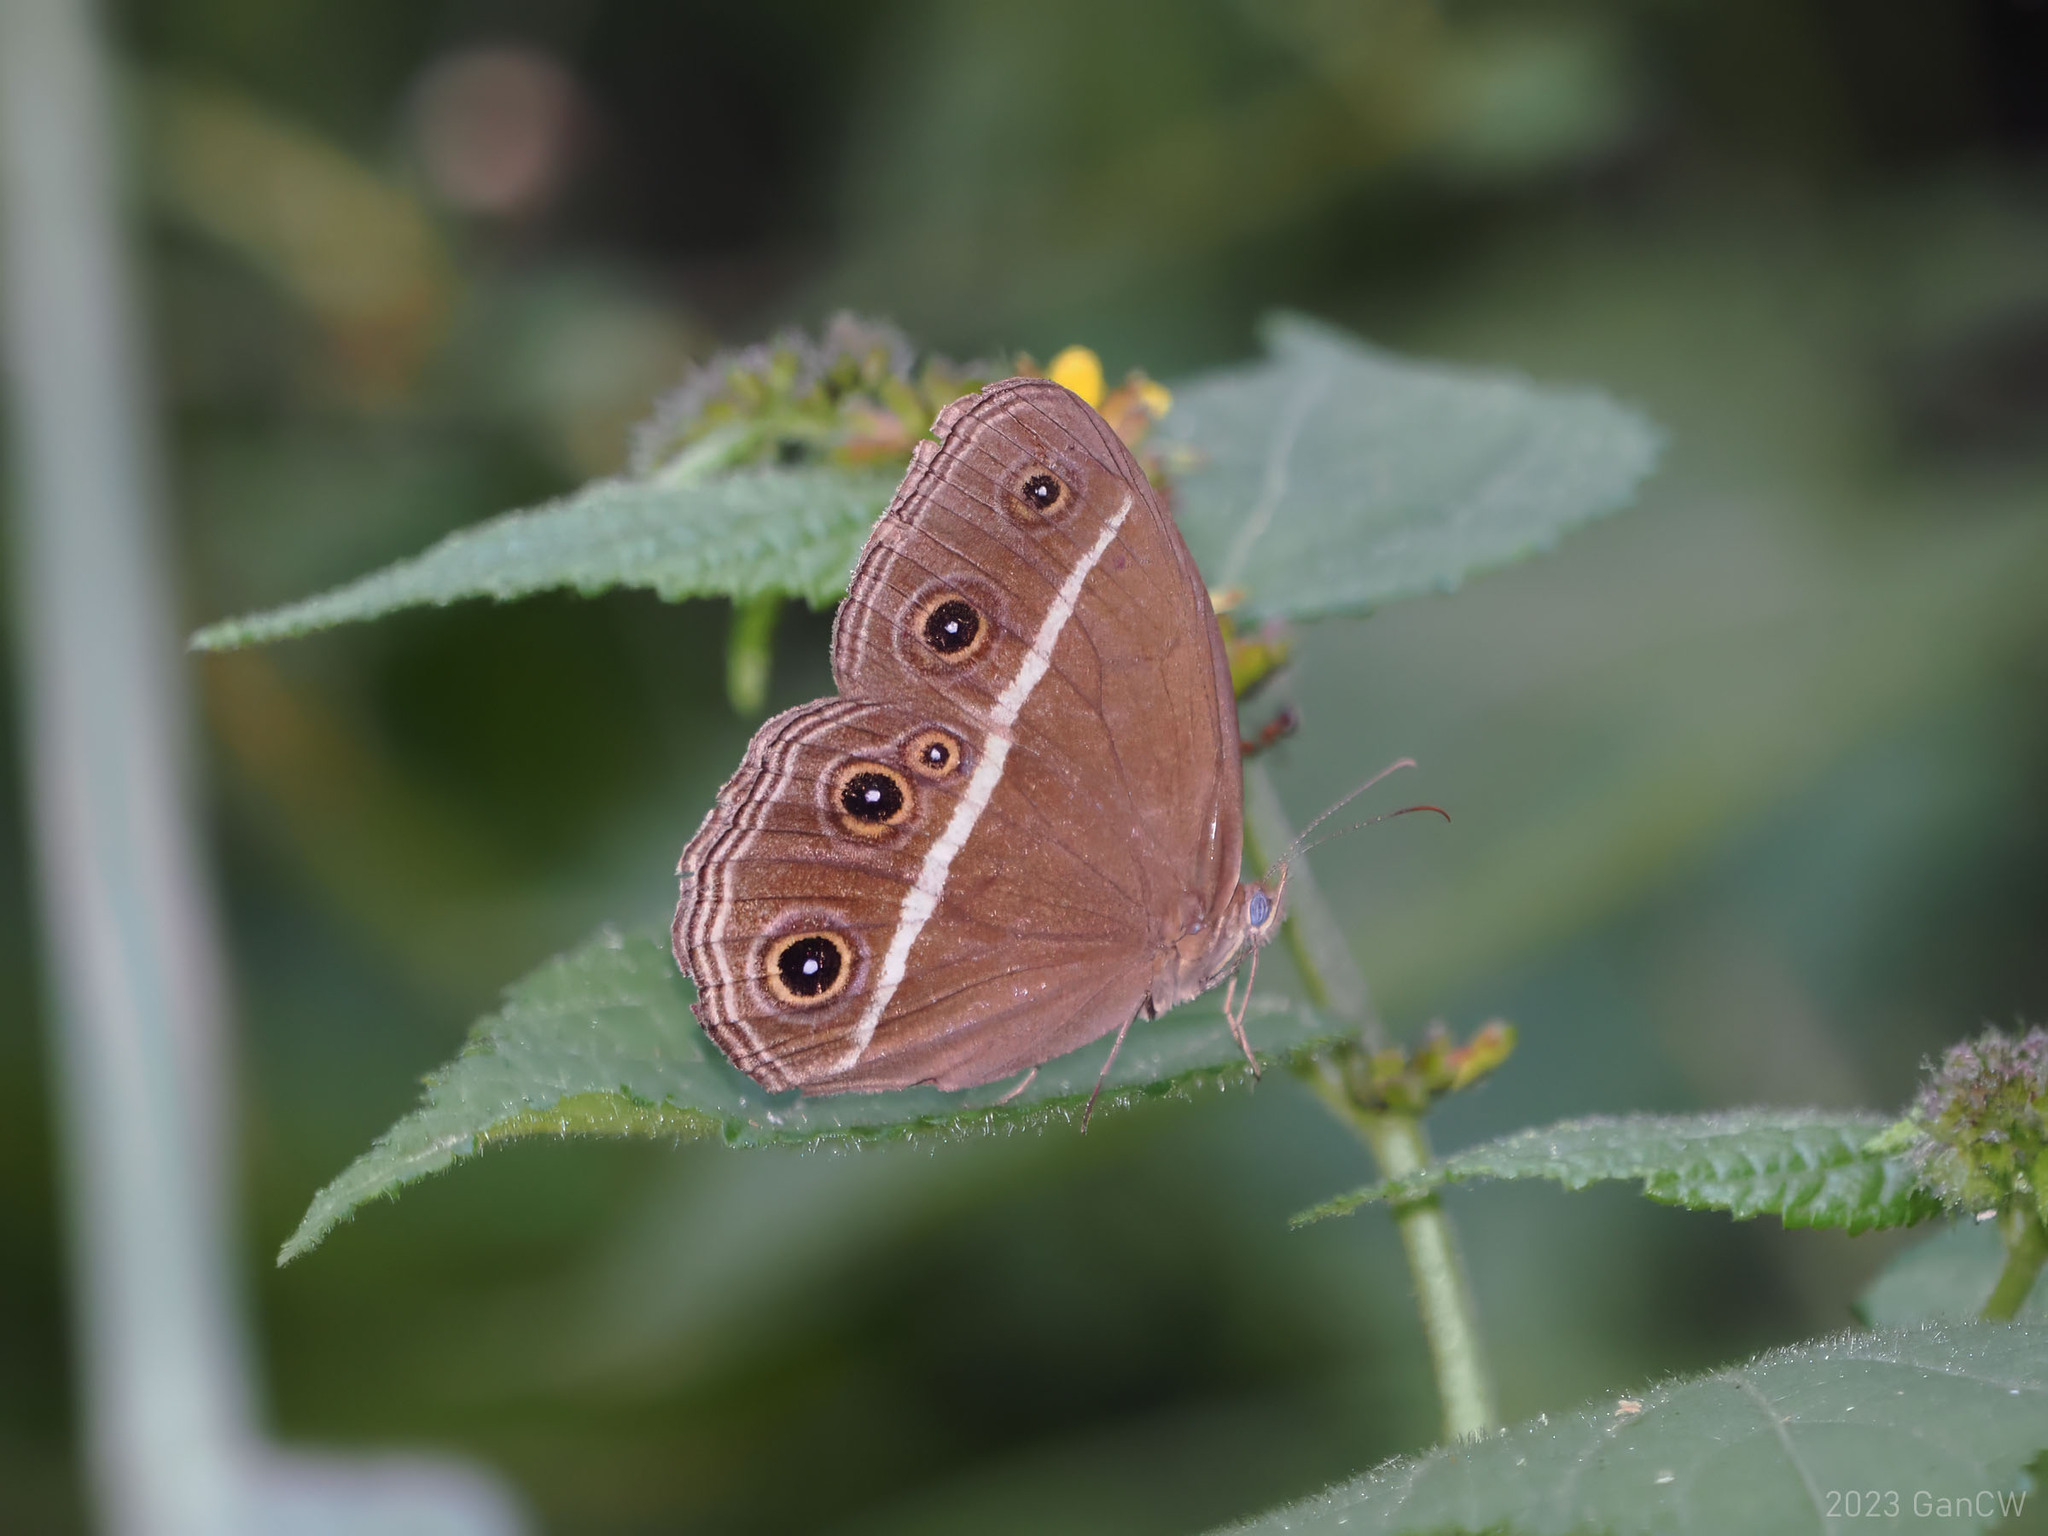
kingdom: Animalia
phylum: Arthropoda
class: Insecta
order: Lepidoptera
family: Nymphalidae
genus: Orsotriaena
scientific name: Orsotriaena medus
